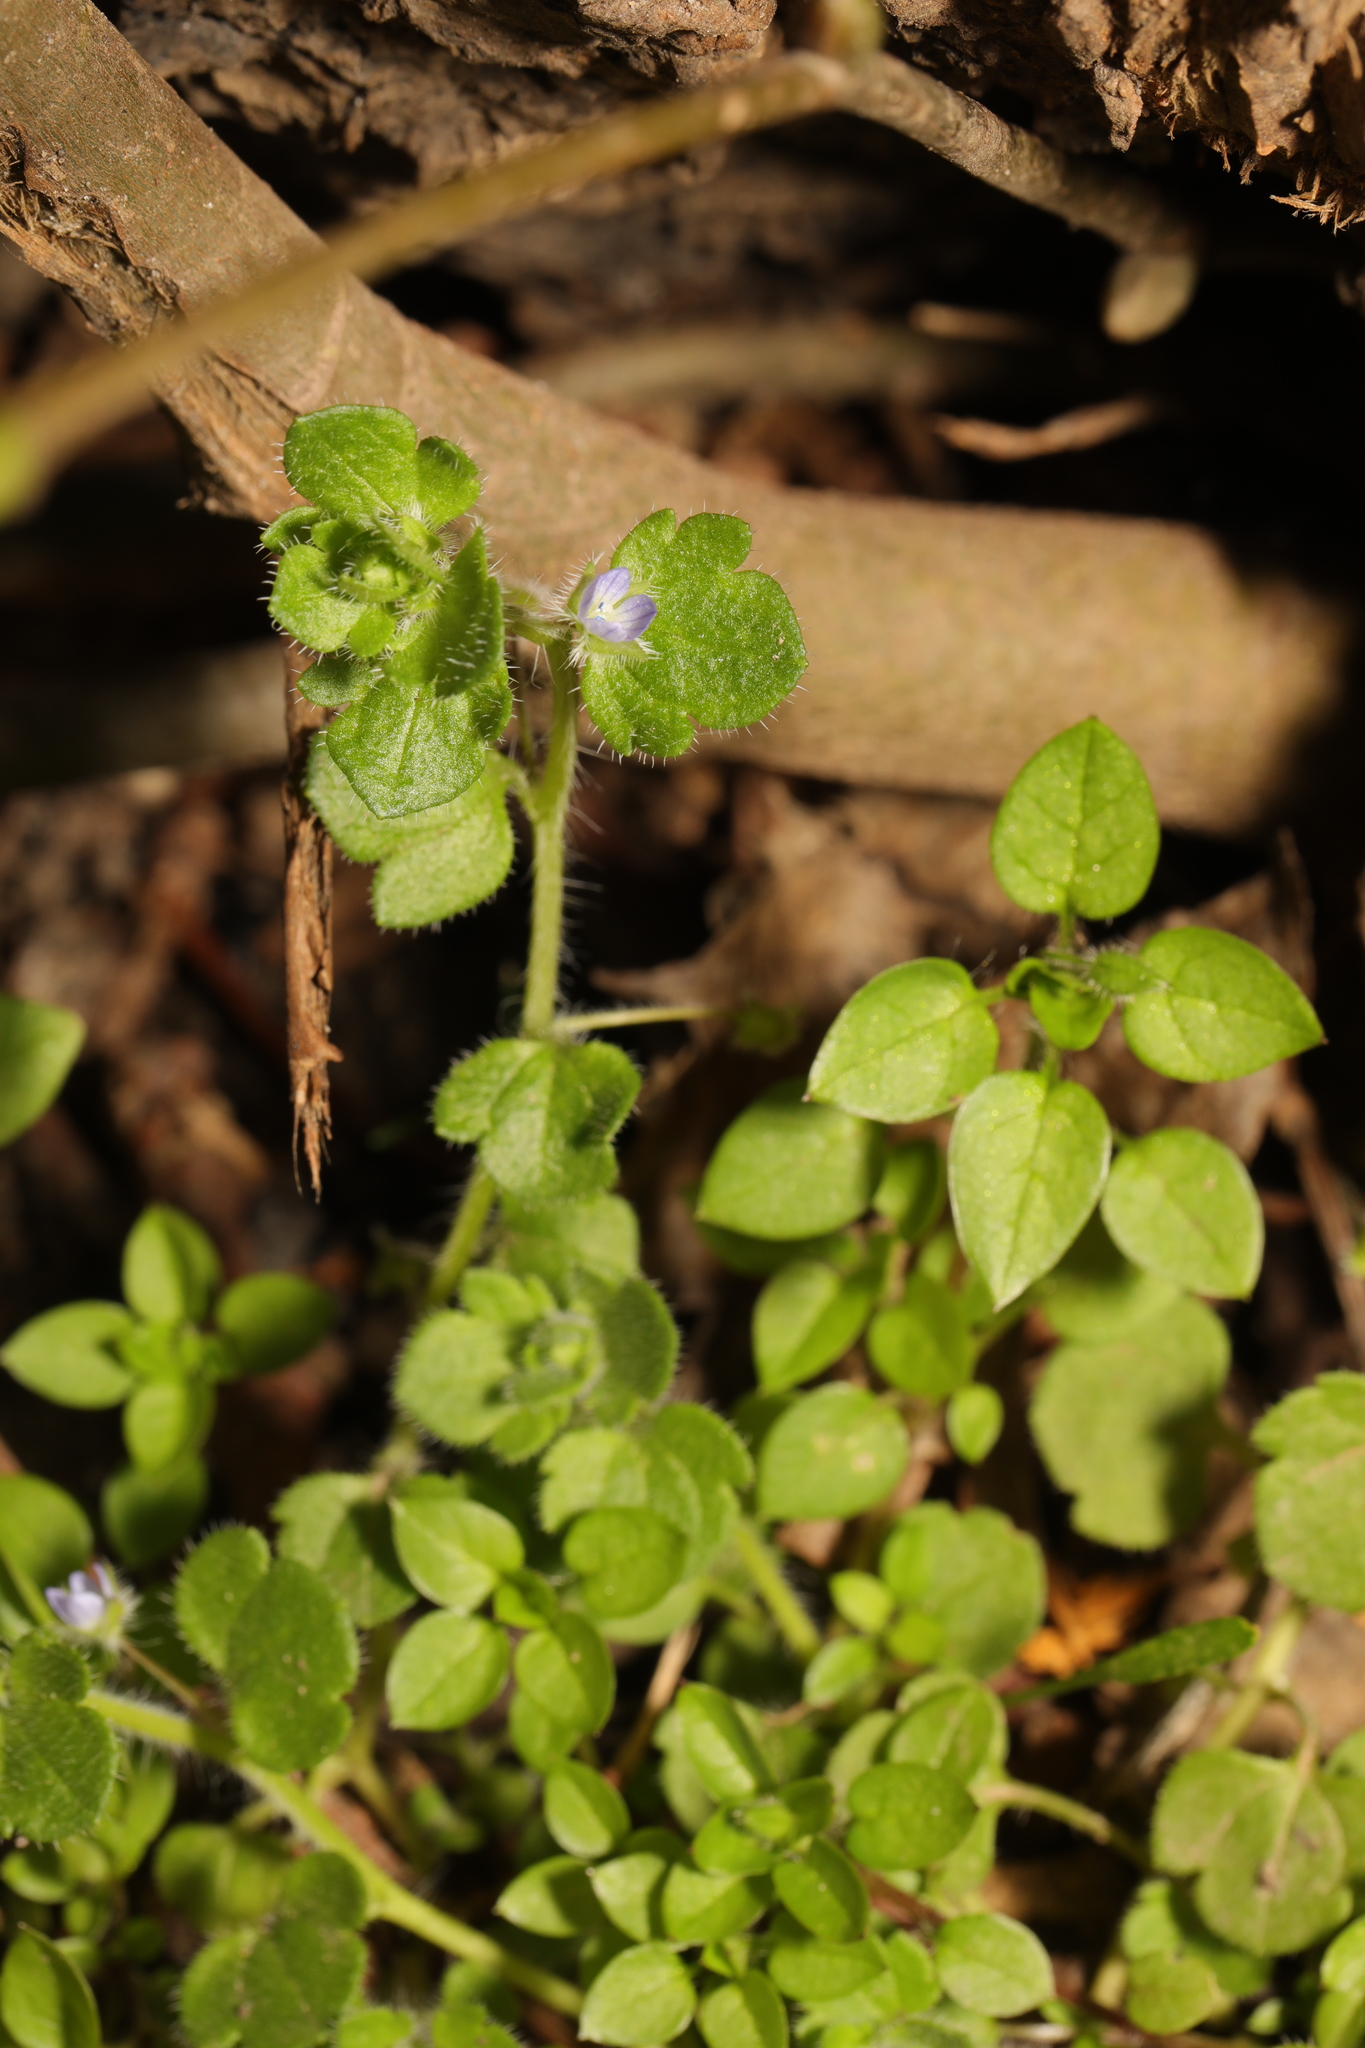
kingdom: Plantae
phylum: Tracheophyta
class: Magnoliopsida
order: Lamiales
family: Plantaginaceae
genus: Veronica
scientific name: Veronica hederifolia
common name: Ivy-leaved speedwell
